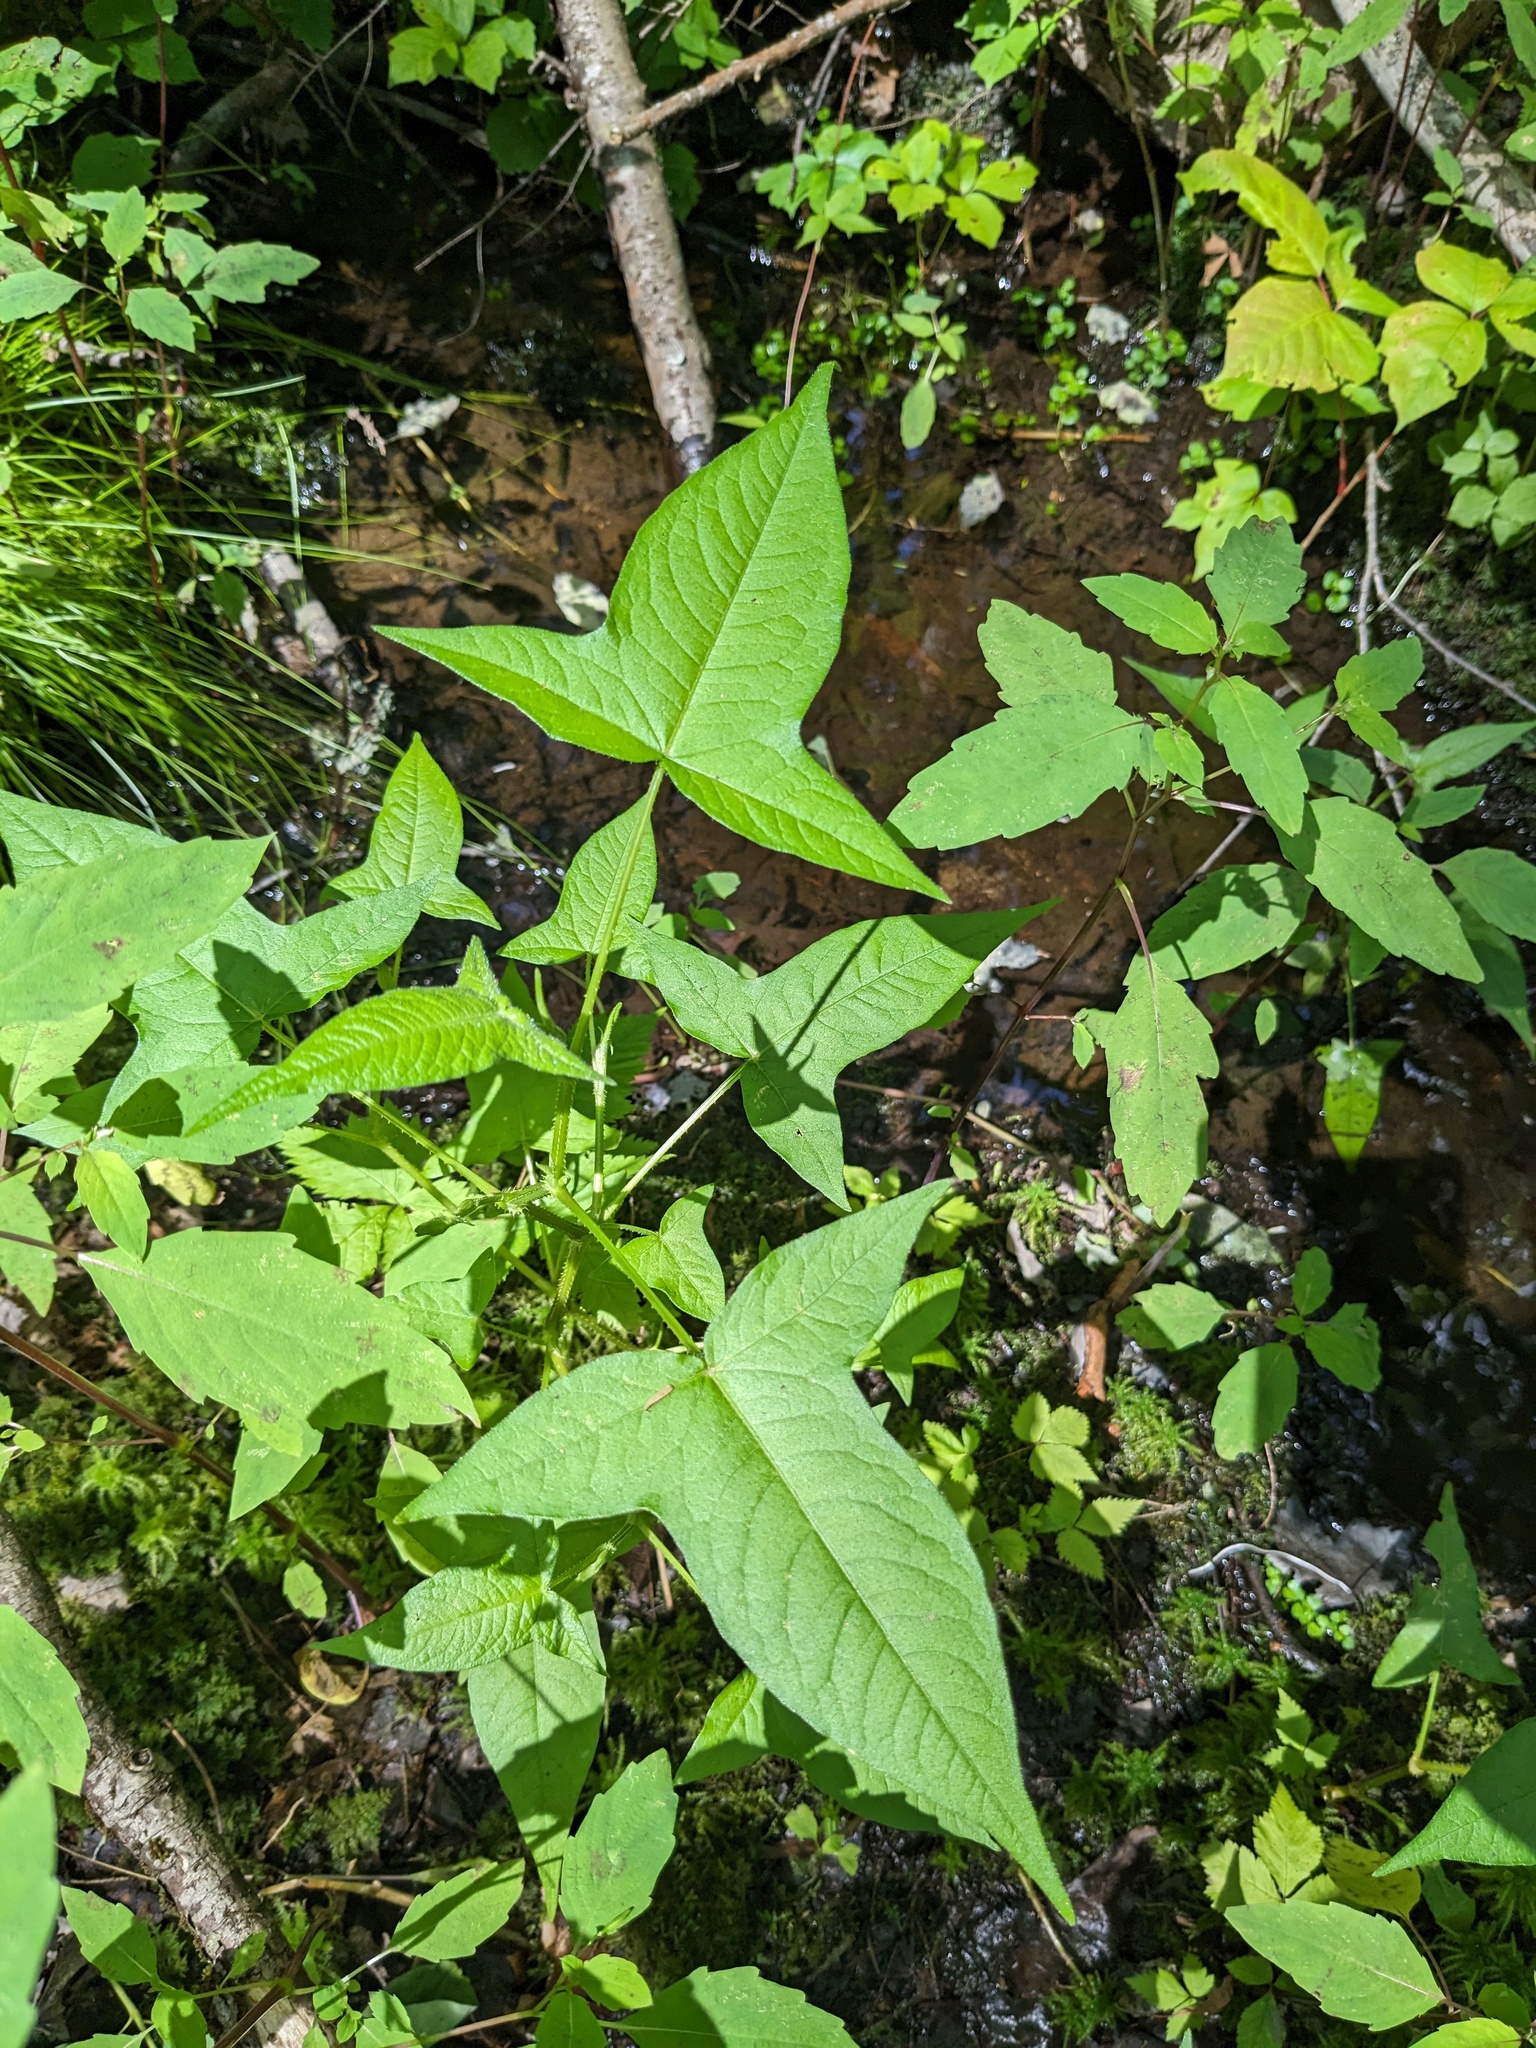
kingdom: Plantae
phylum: Tracheophyta
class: Magnoliopsida
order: Caryophyllales
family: Polygonaceae
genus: Persicaria
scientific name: Persicaria arifolia
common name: Halberd-leaved tear-thumb
